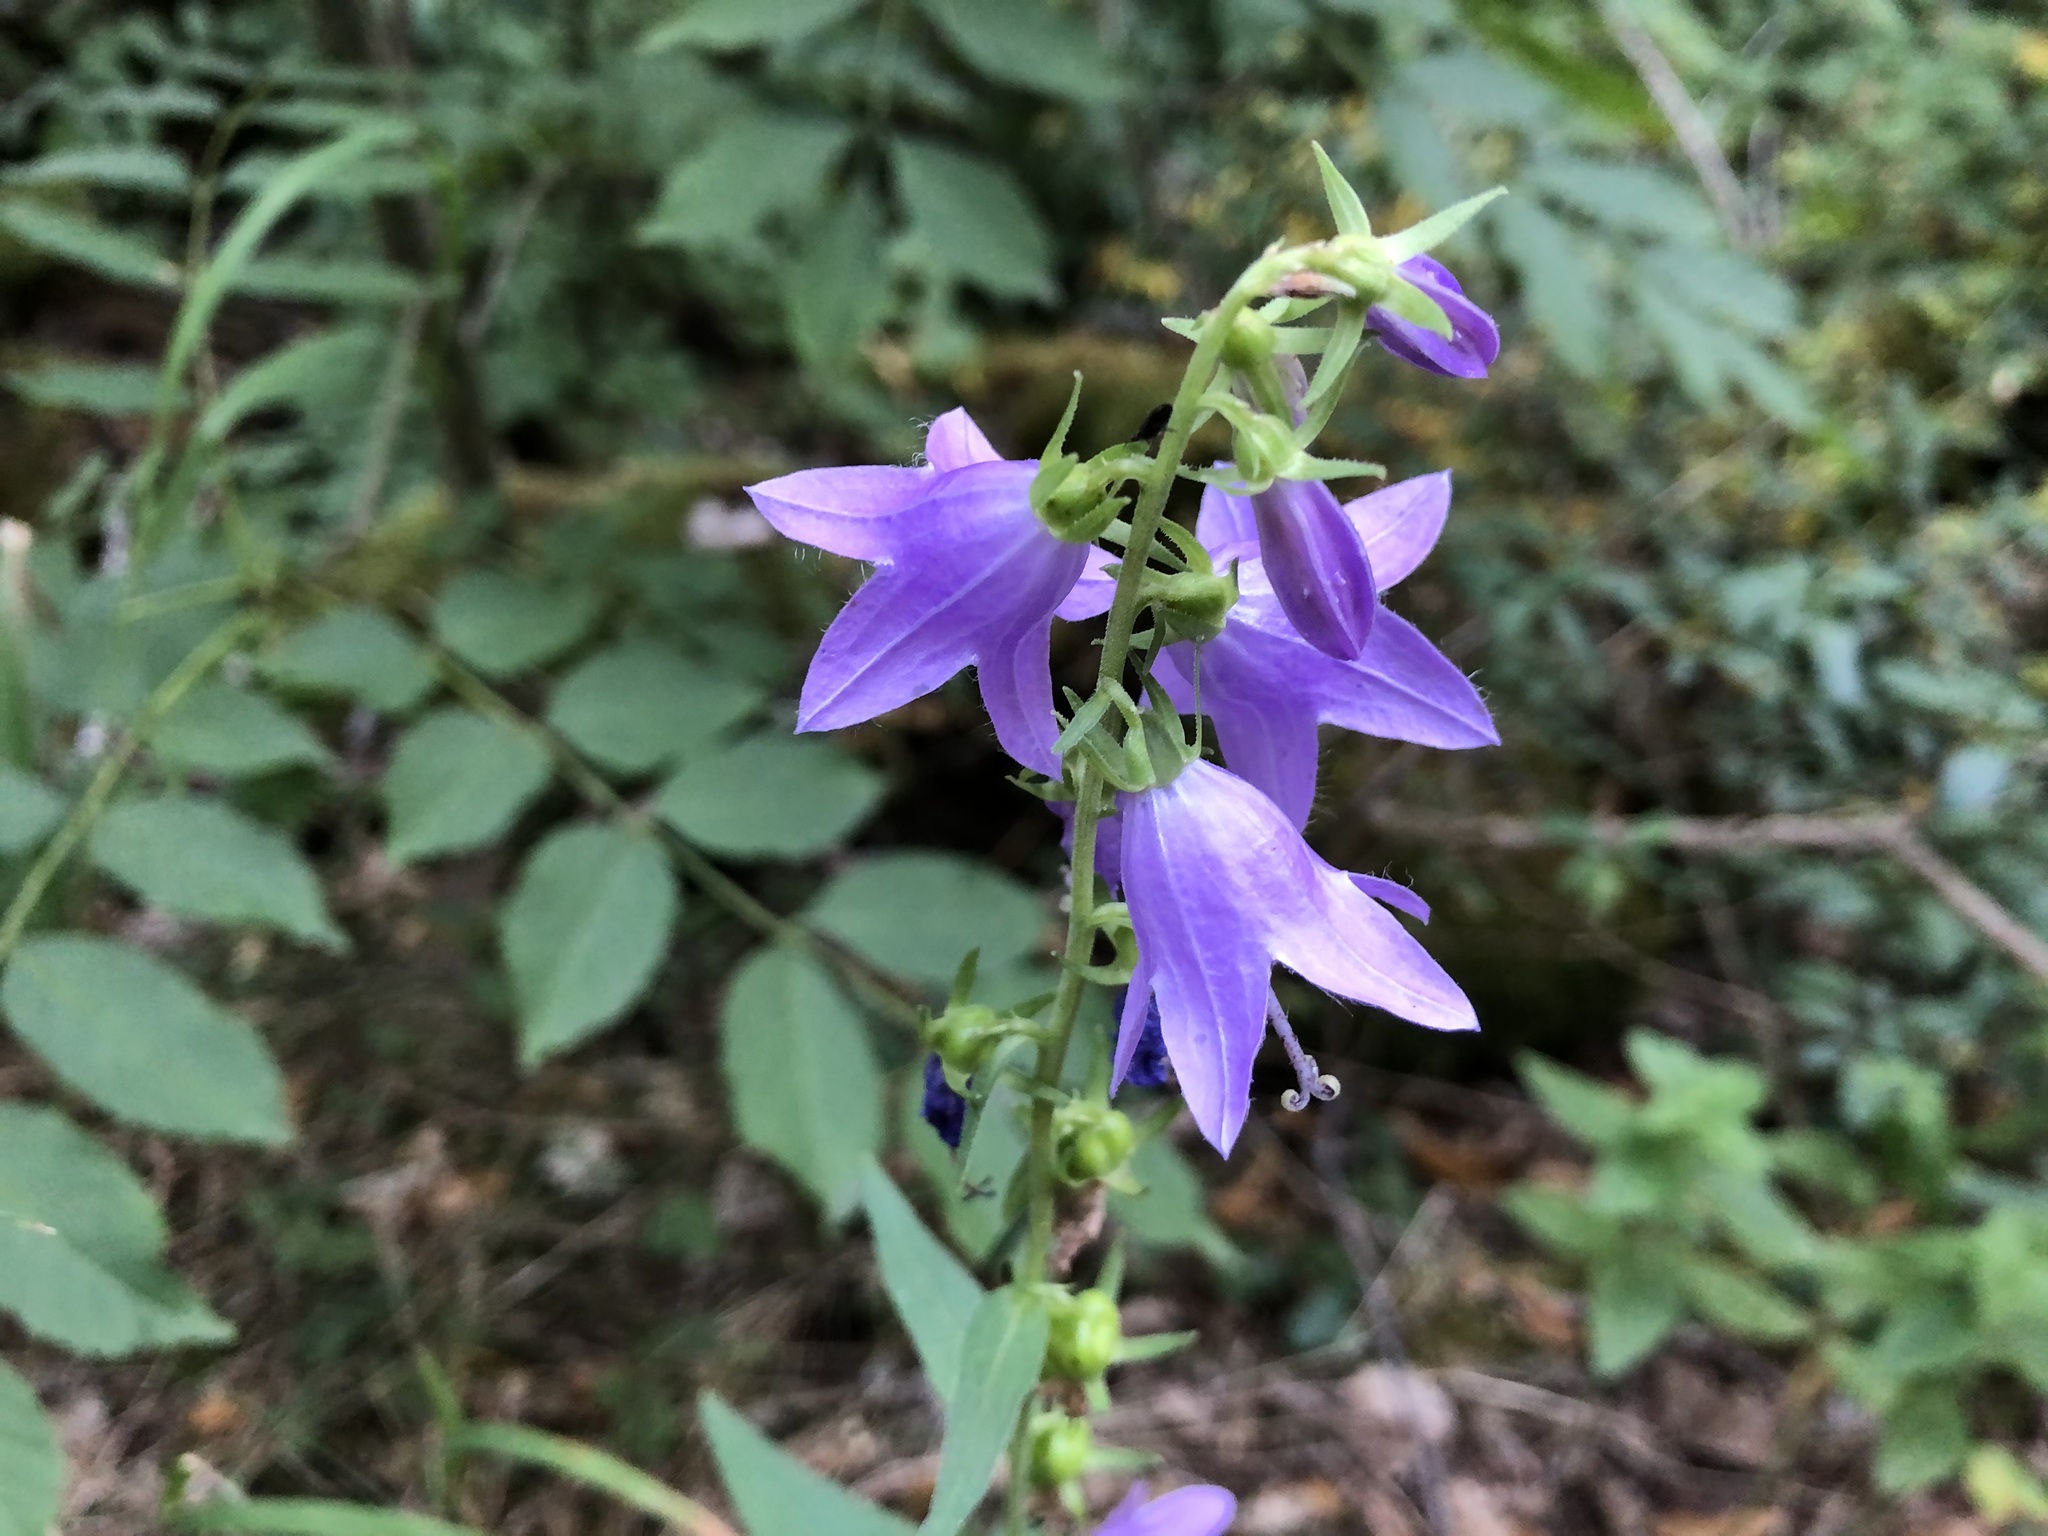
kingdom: Plantae
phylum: Tracheophyta
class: Magnoliopsida
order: Asterales
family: Campanulaceae
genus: Campanula
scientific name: Campanula trachelium
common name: Nettle-leaved bellflower
